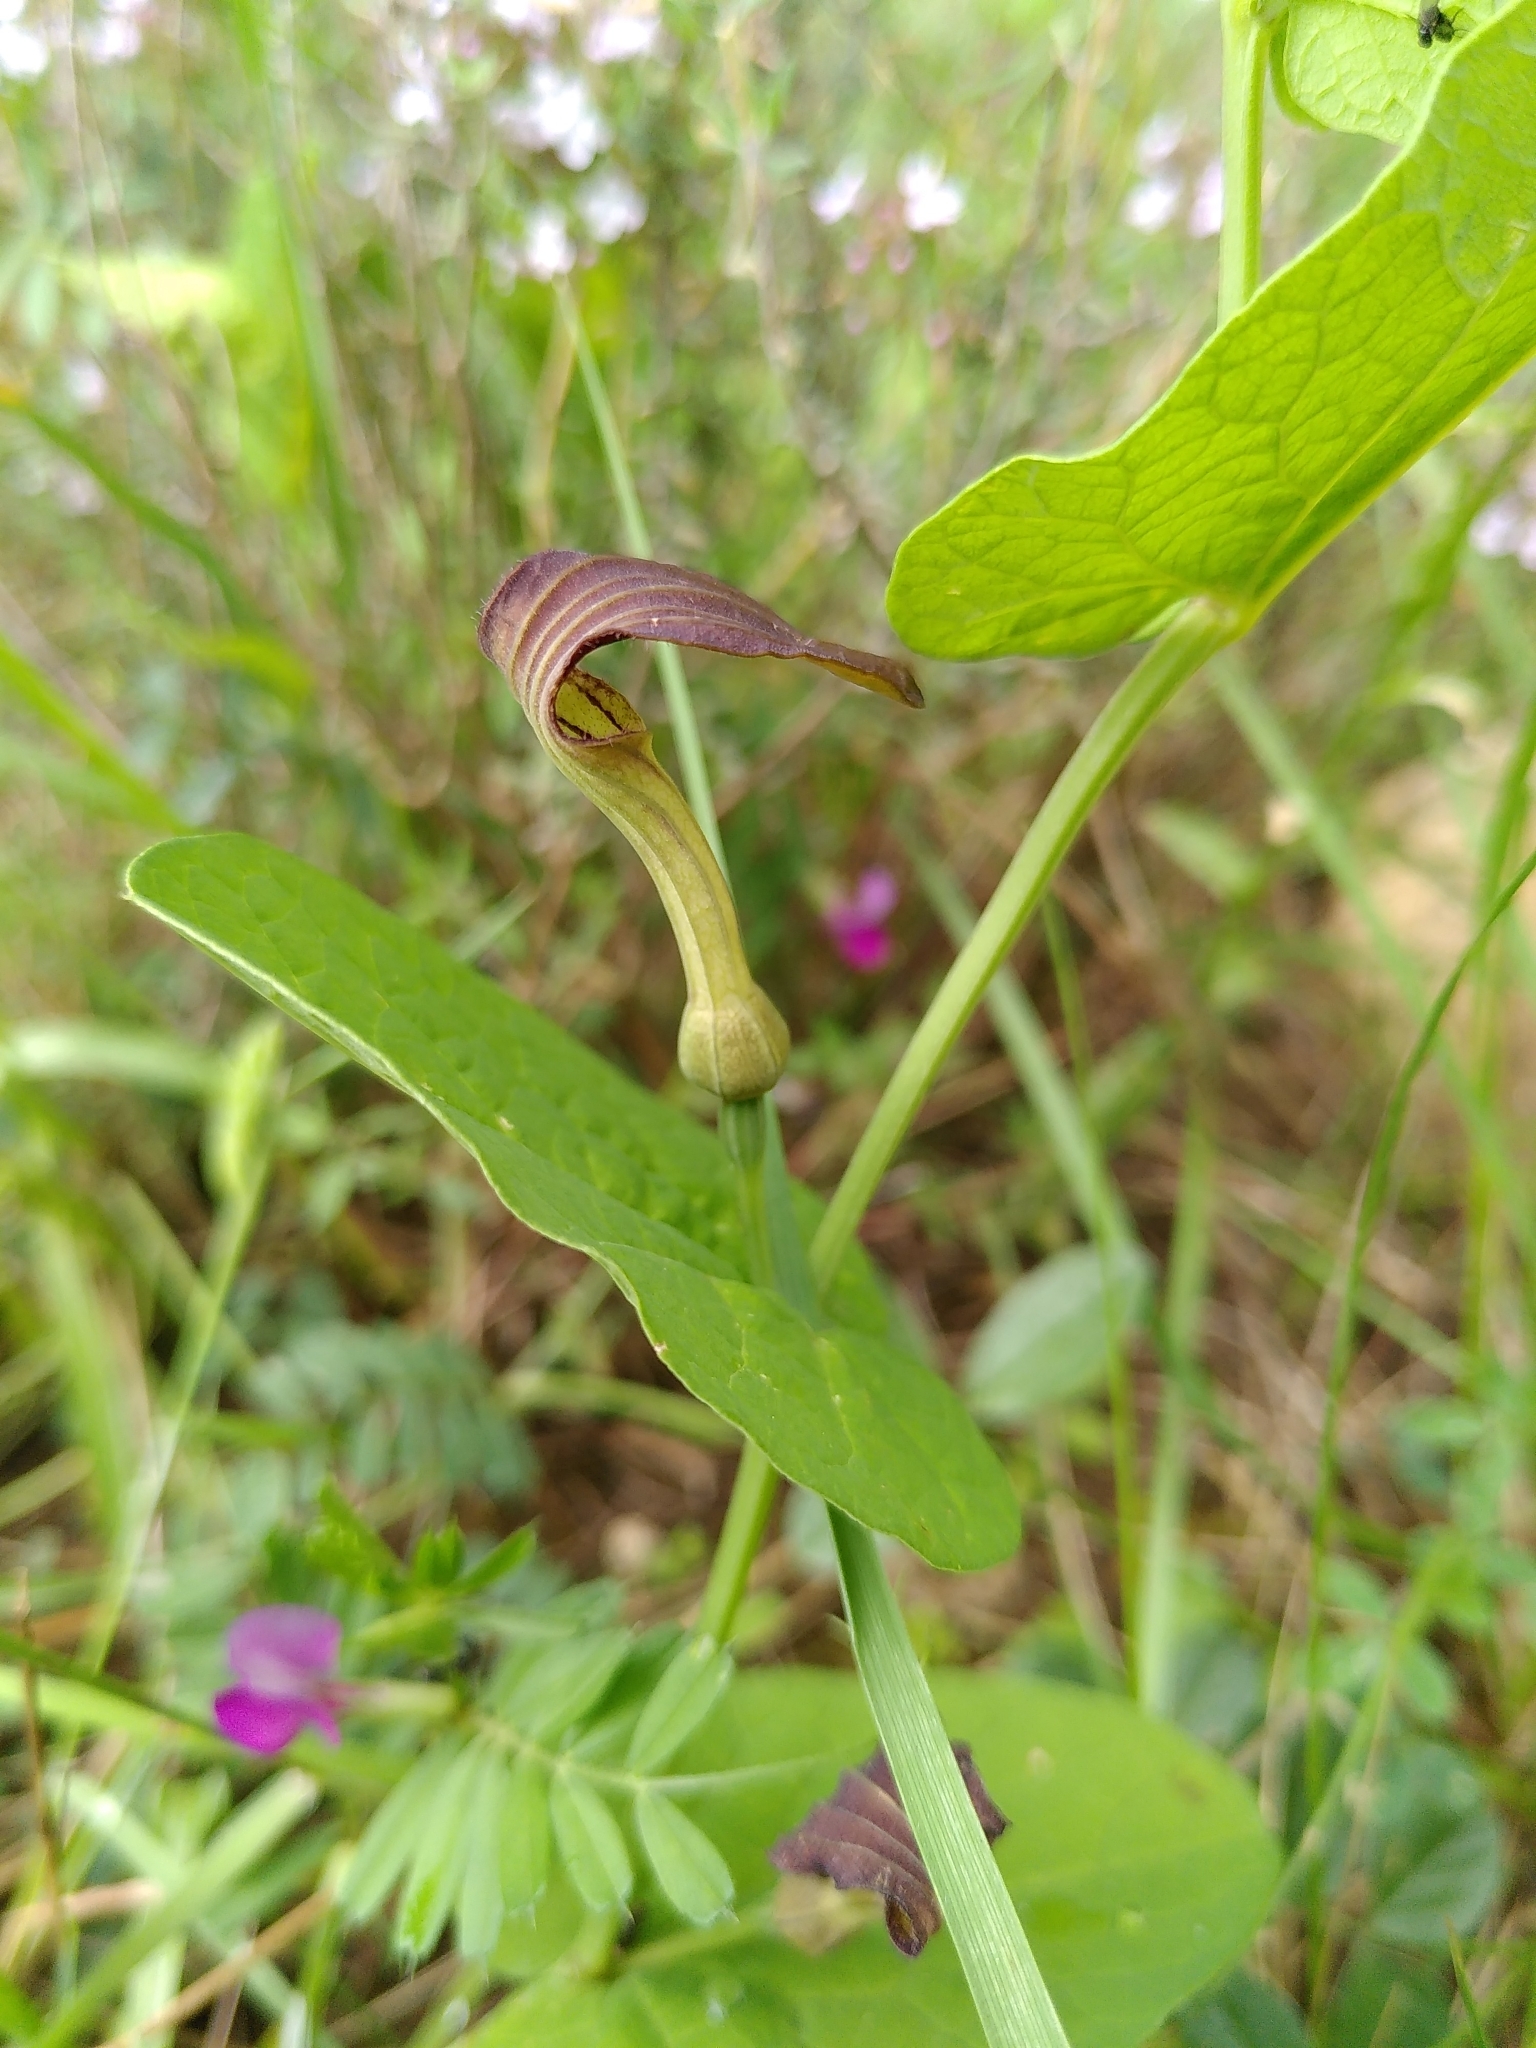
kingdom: Plantae
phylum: Tracheophyta
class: Magnoliopsida
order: Piperales
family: Aristolochiaceae
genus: Aristolochia
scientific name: Aristolochia rotunda
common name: Smearwort
